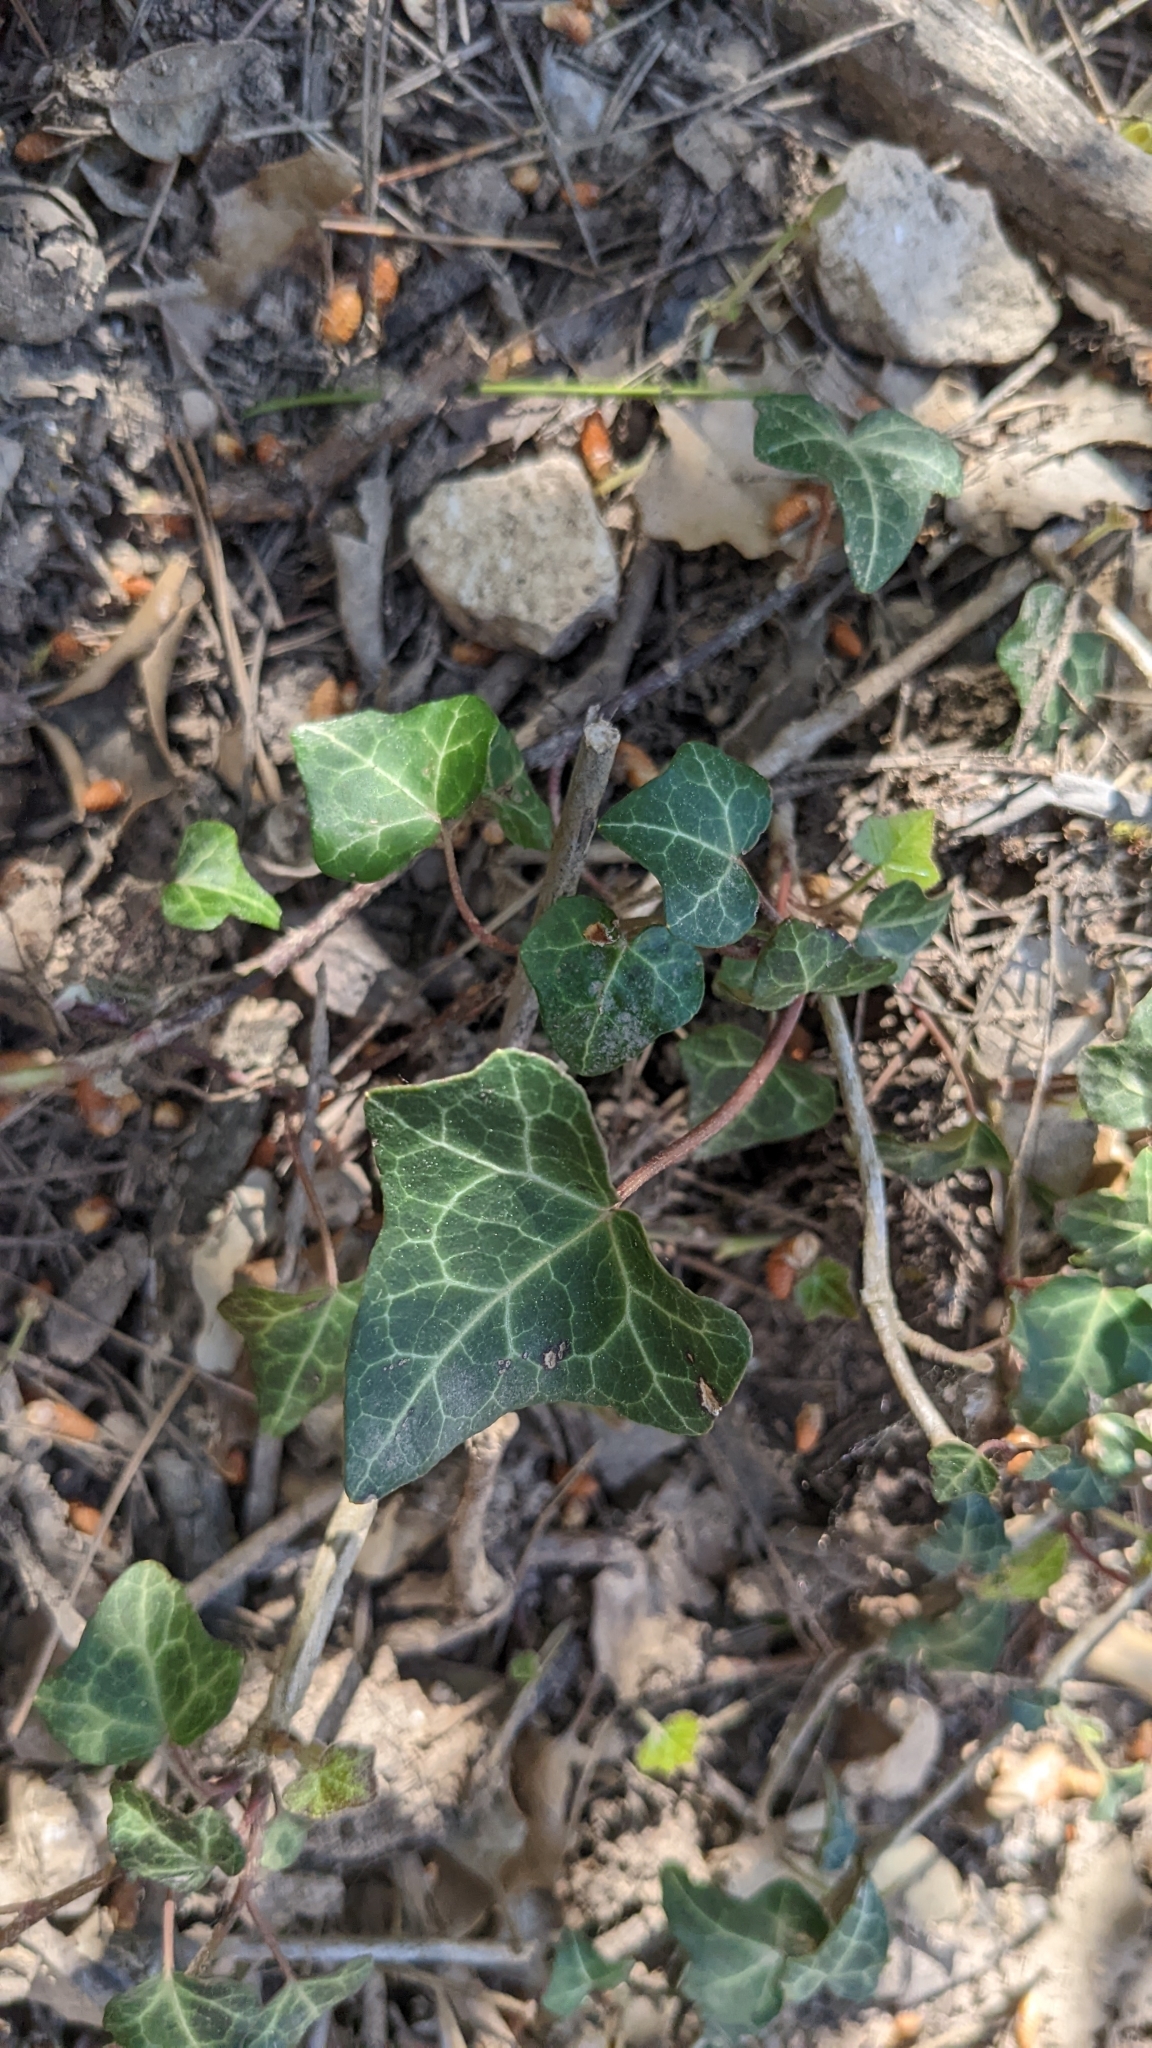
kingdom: Plantae
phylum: Tracheophyta
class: Magnoliopsida
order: Apiales
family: Araliaceae
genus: Hedera
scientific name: Hedera helix
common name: Ivy
